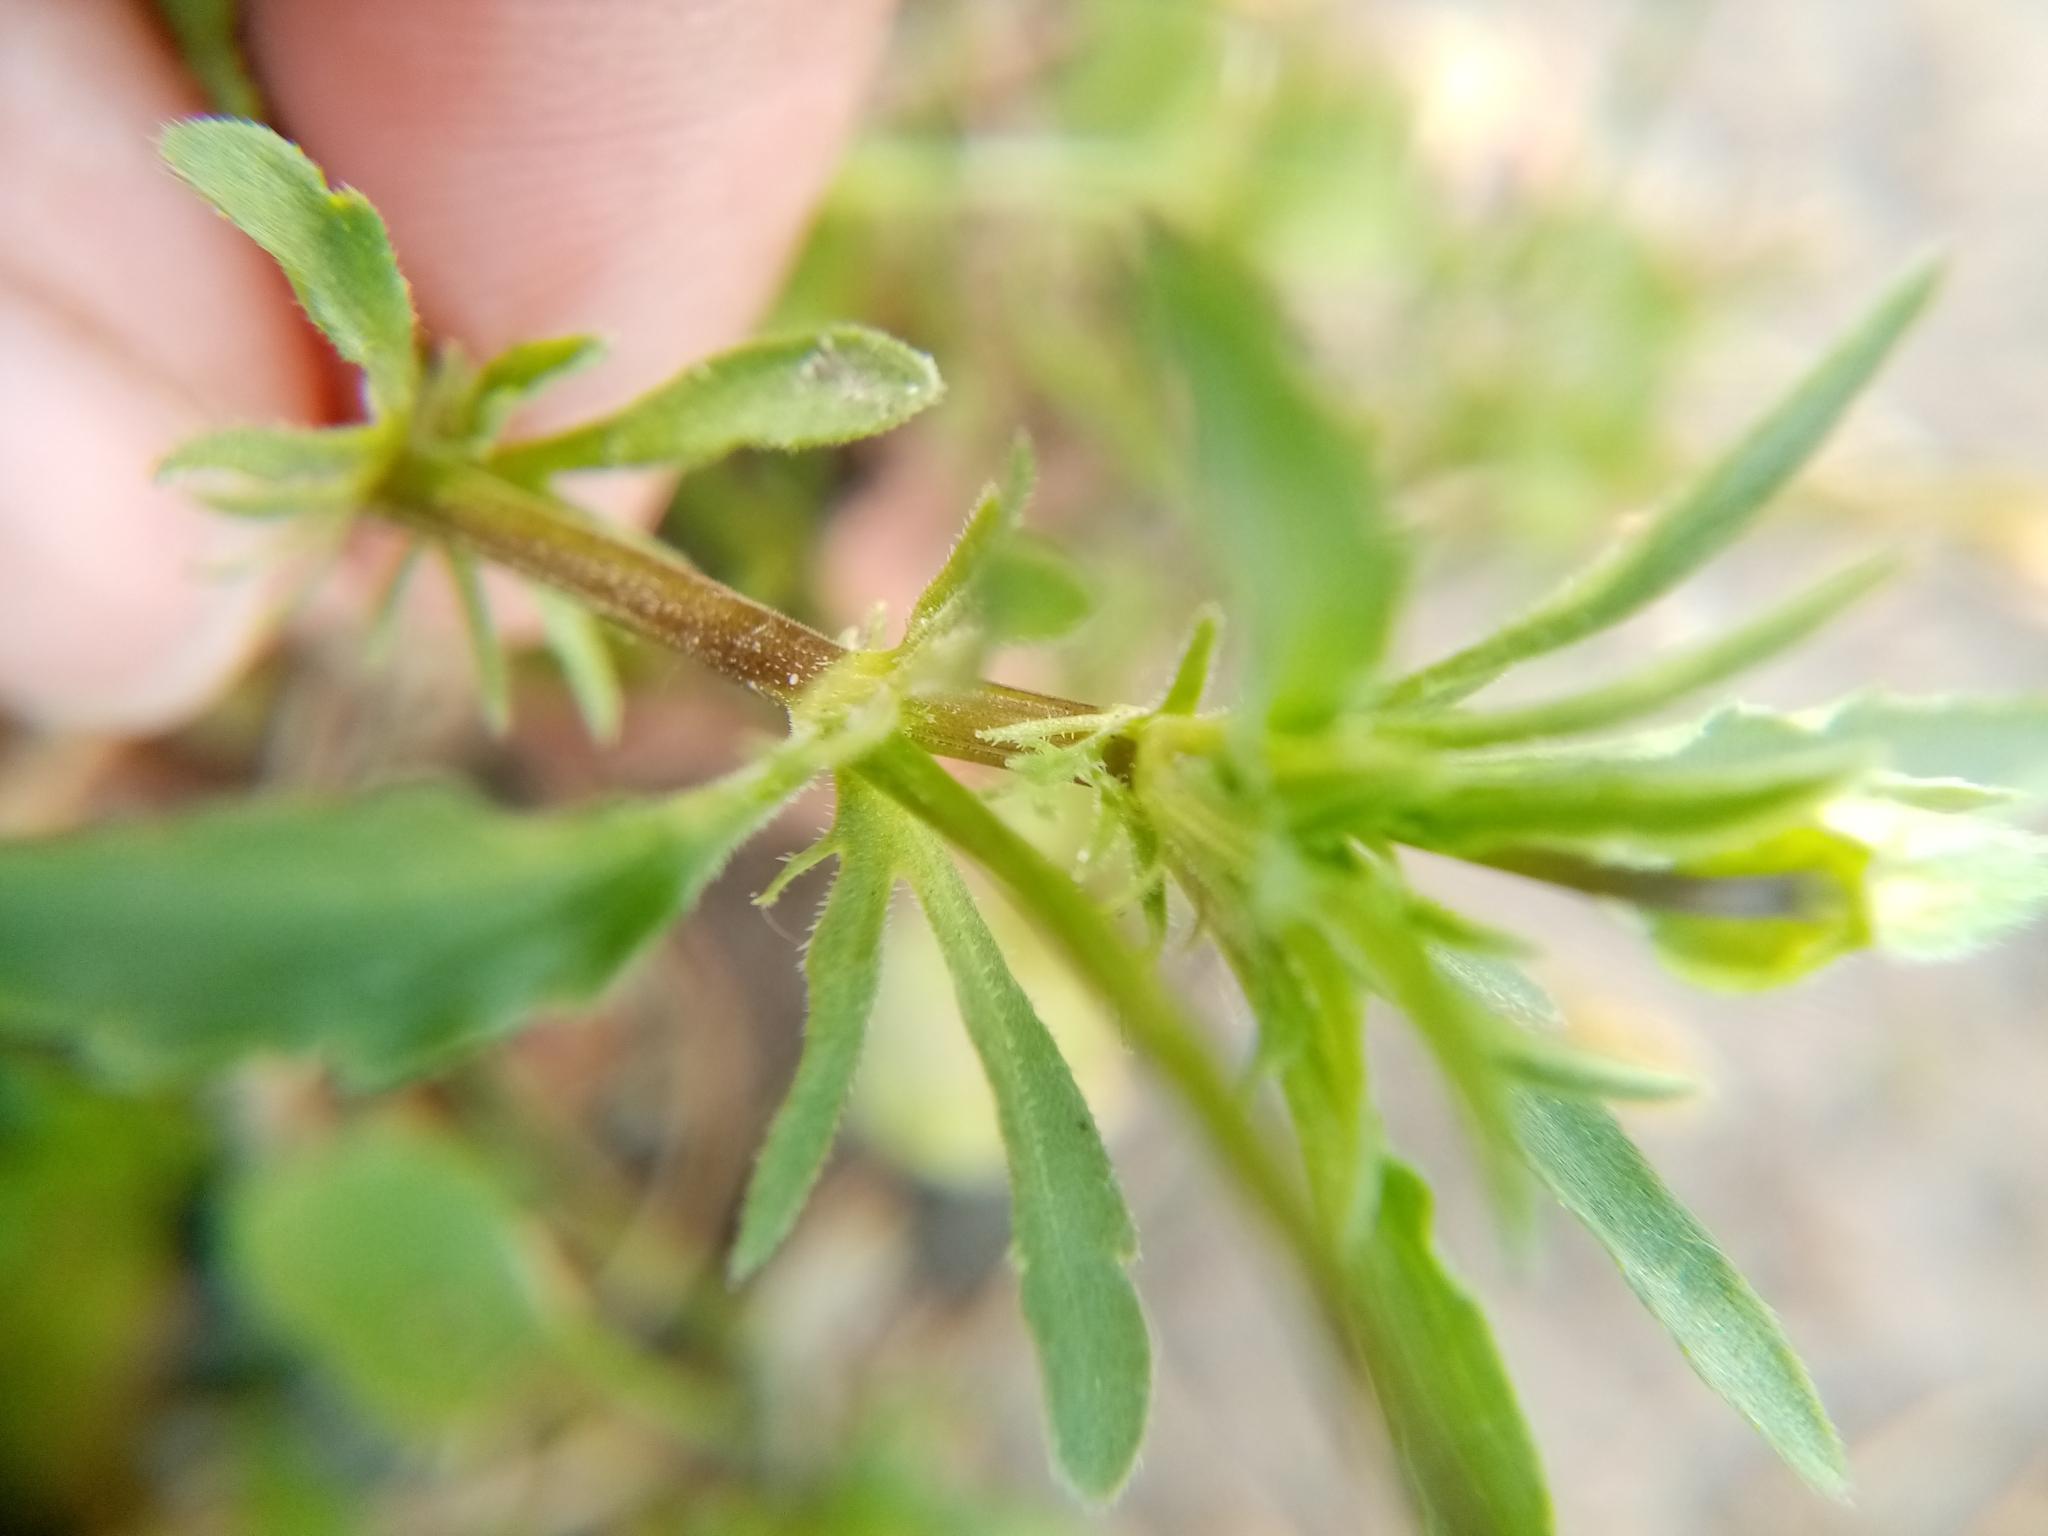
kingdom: Plantae
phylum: Tracheophyta
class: Magnoliopsida
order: Malpighiales
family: Violaceae
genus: Viola
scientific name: Viola arvensis
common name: Field pansy
